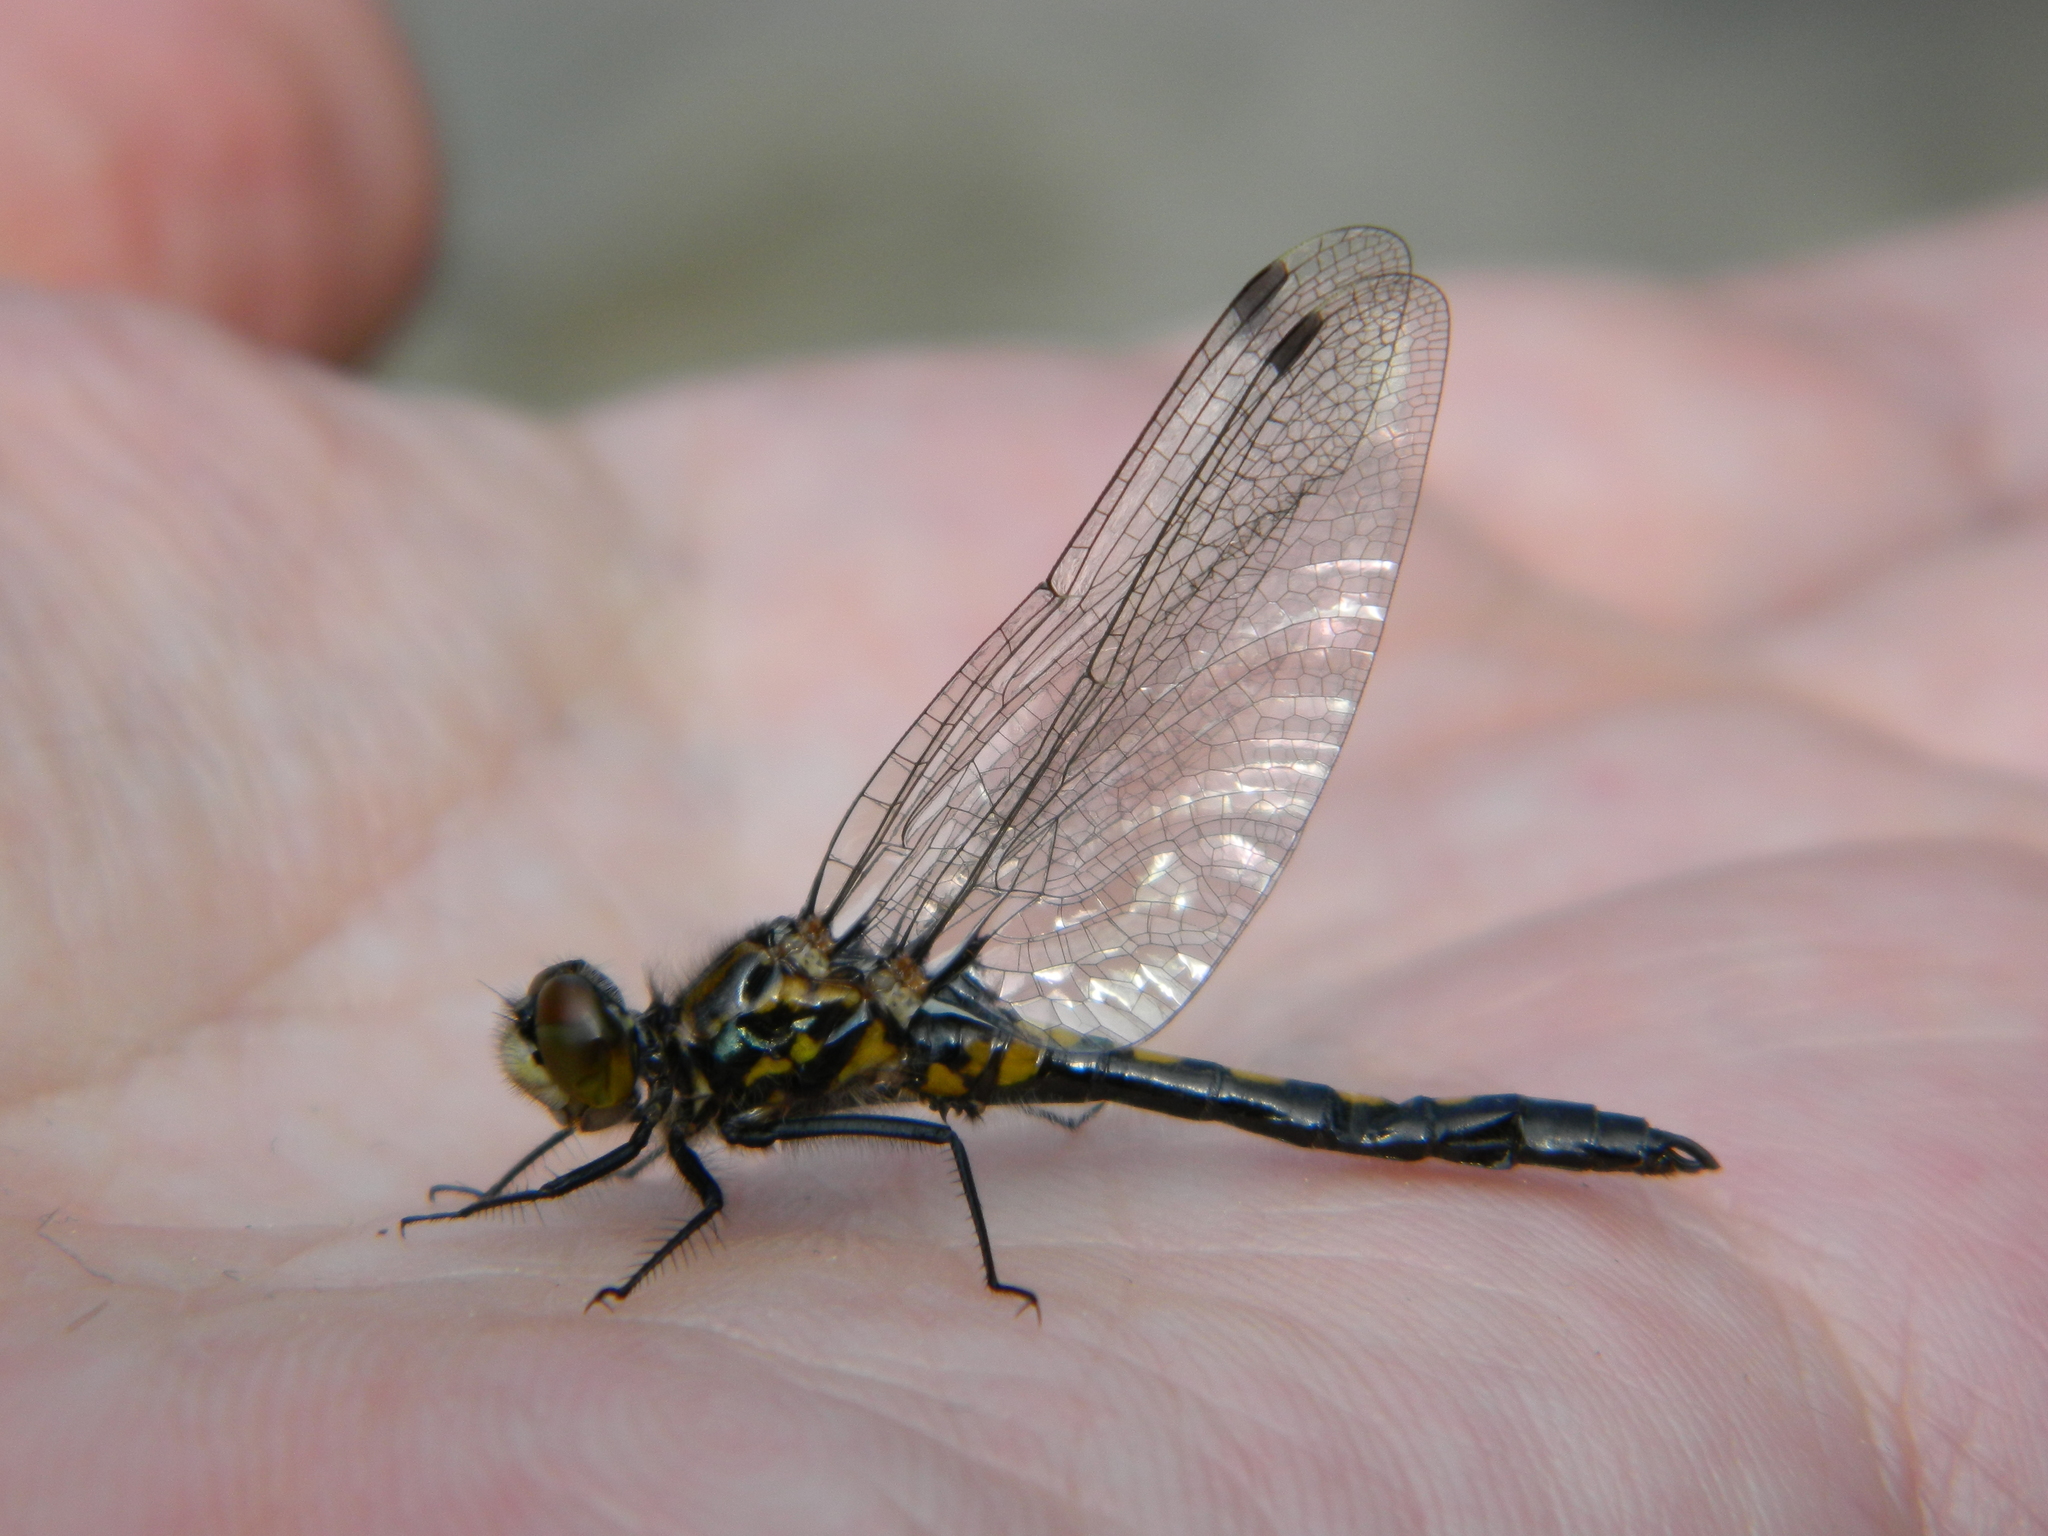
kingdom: Animalia
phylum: Arthropoda
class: Insecta
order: Odonata
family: Libellulidae
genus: Leucorrhinia
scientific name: Leucorrhinia hudsonica
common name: Hudsonian whiteface
